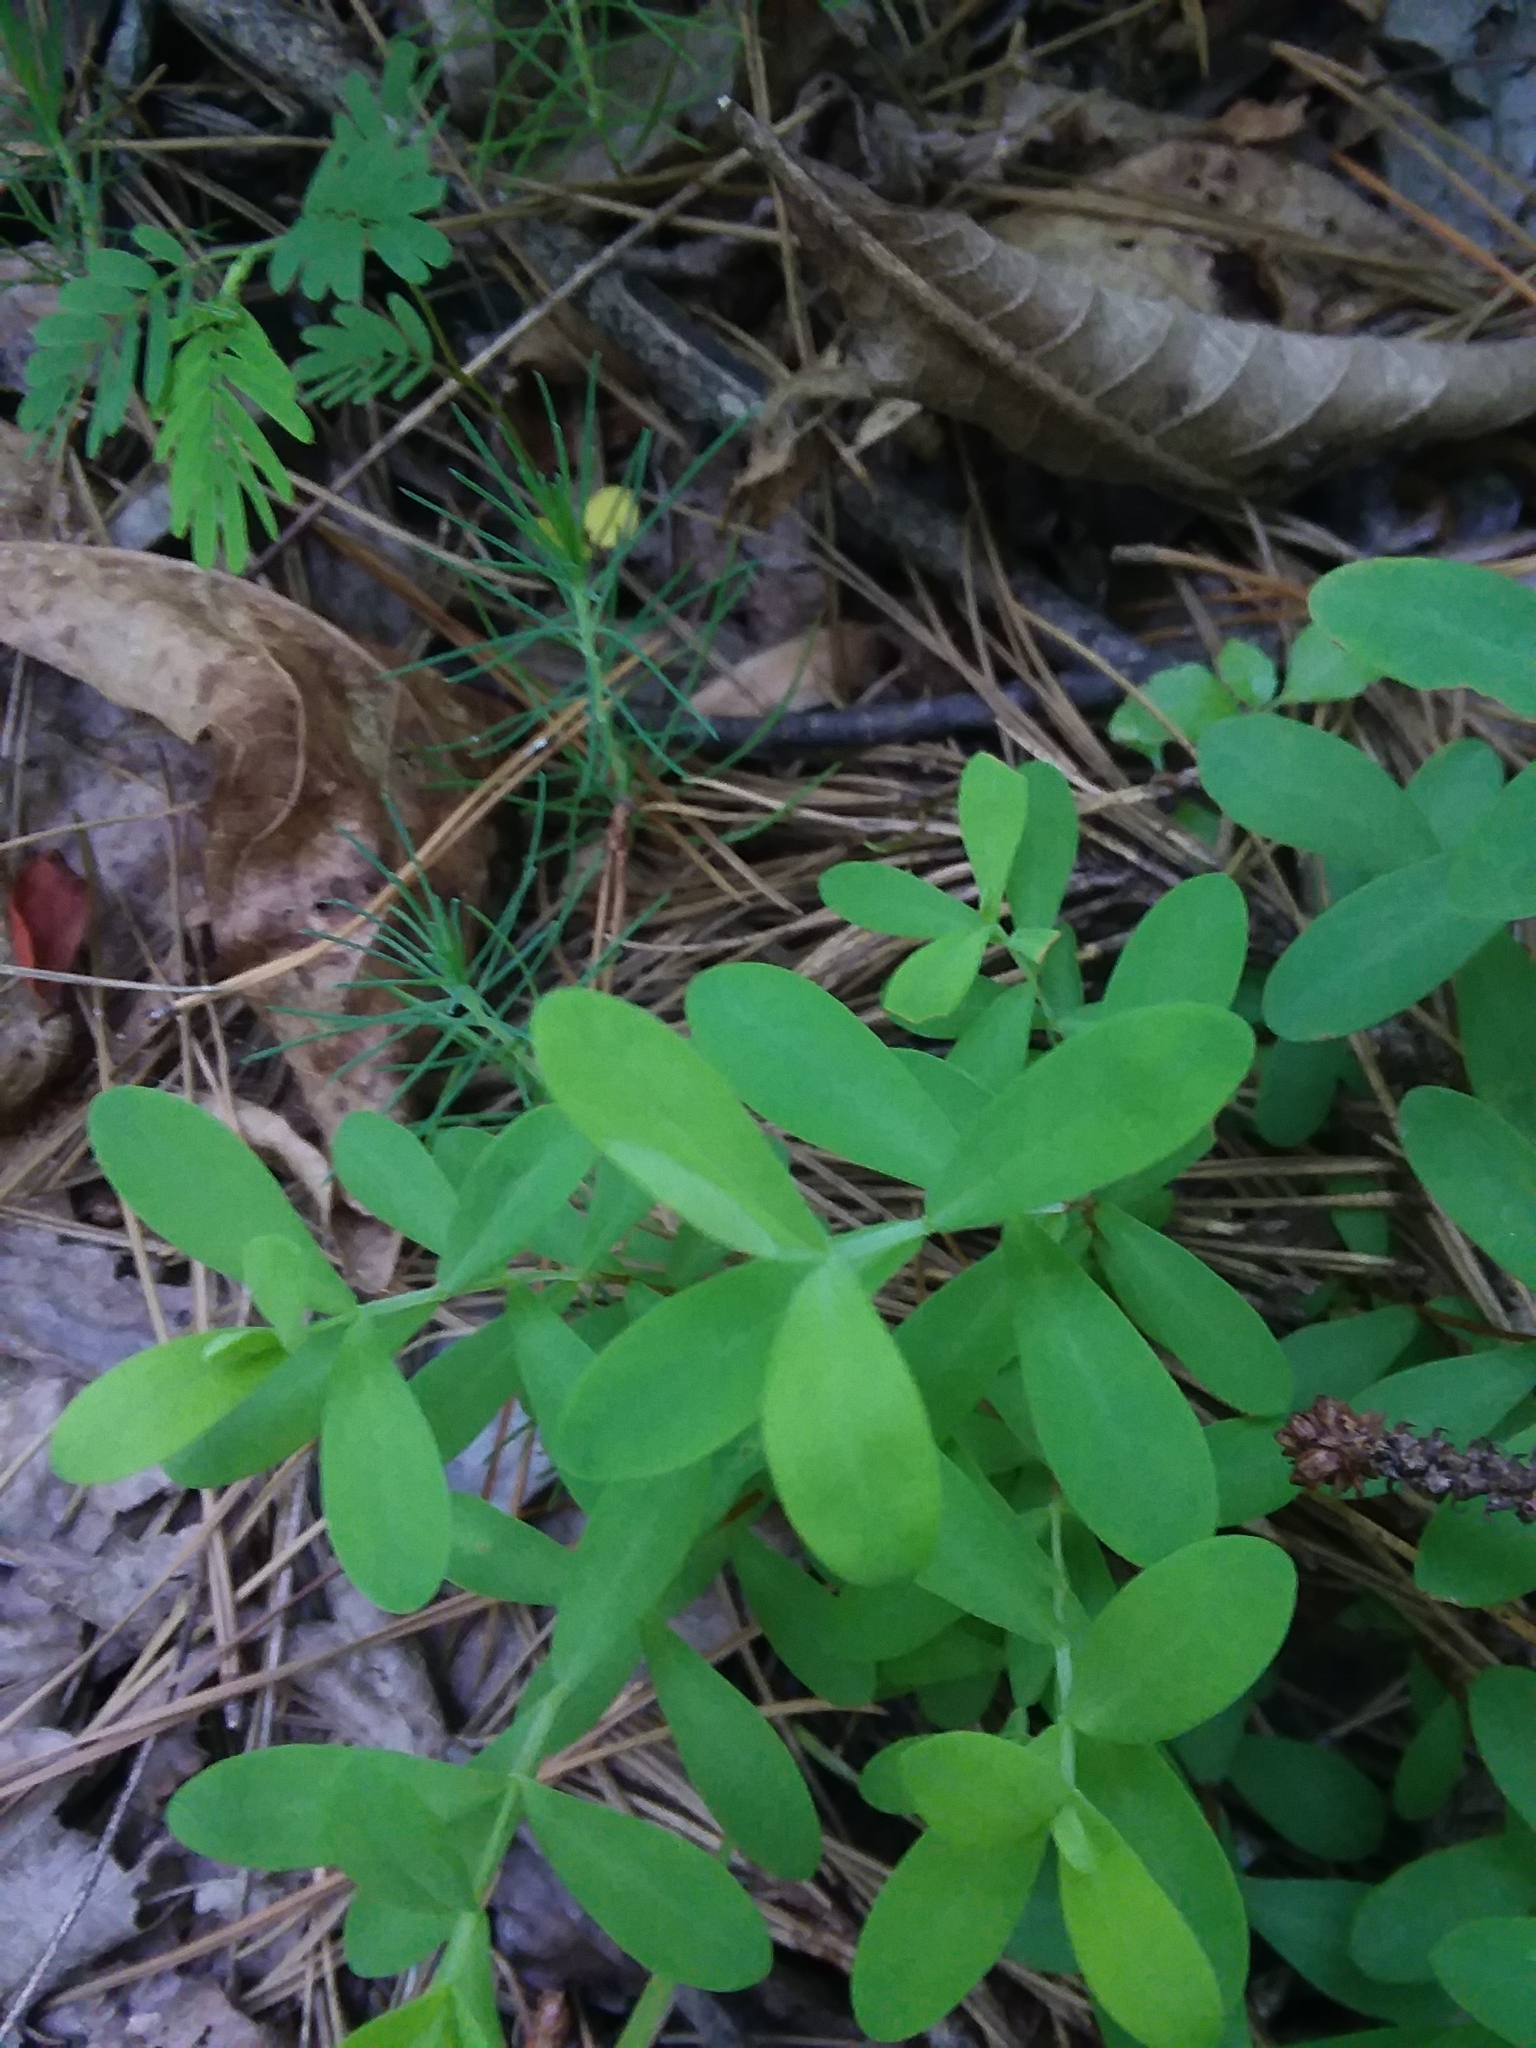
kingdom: Plantae
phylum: Tracheophyta
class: Magnoliopsida
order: Malpighiales
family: Hypericaceae
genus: Hypericum
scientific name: Hypericum hypericoides
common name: St. andrew's cross
